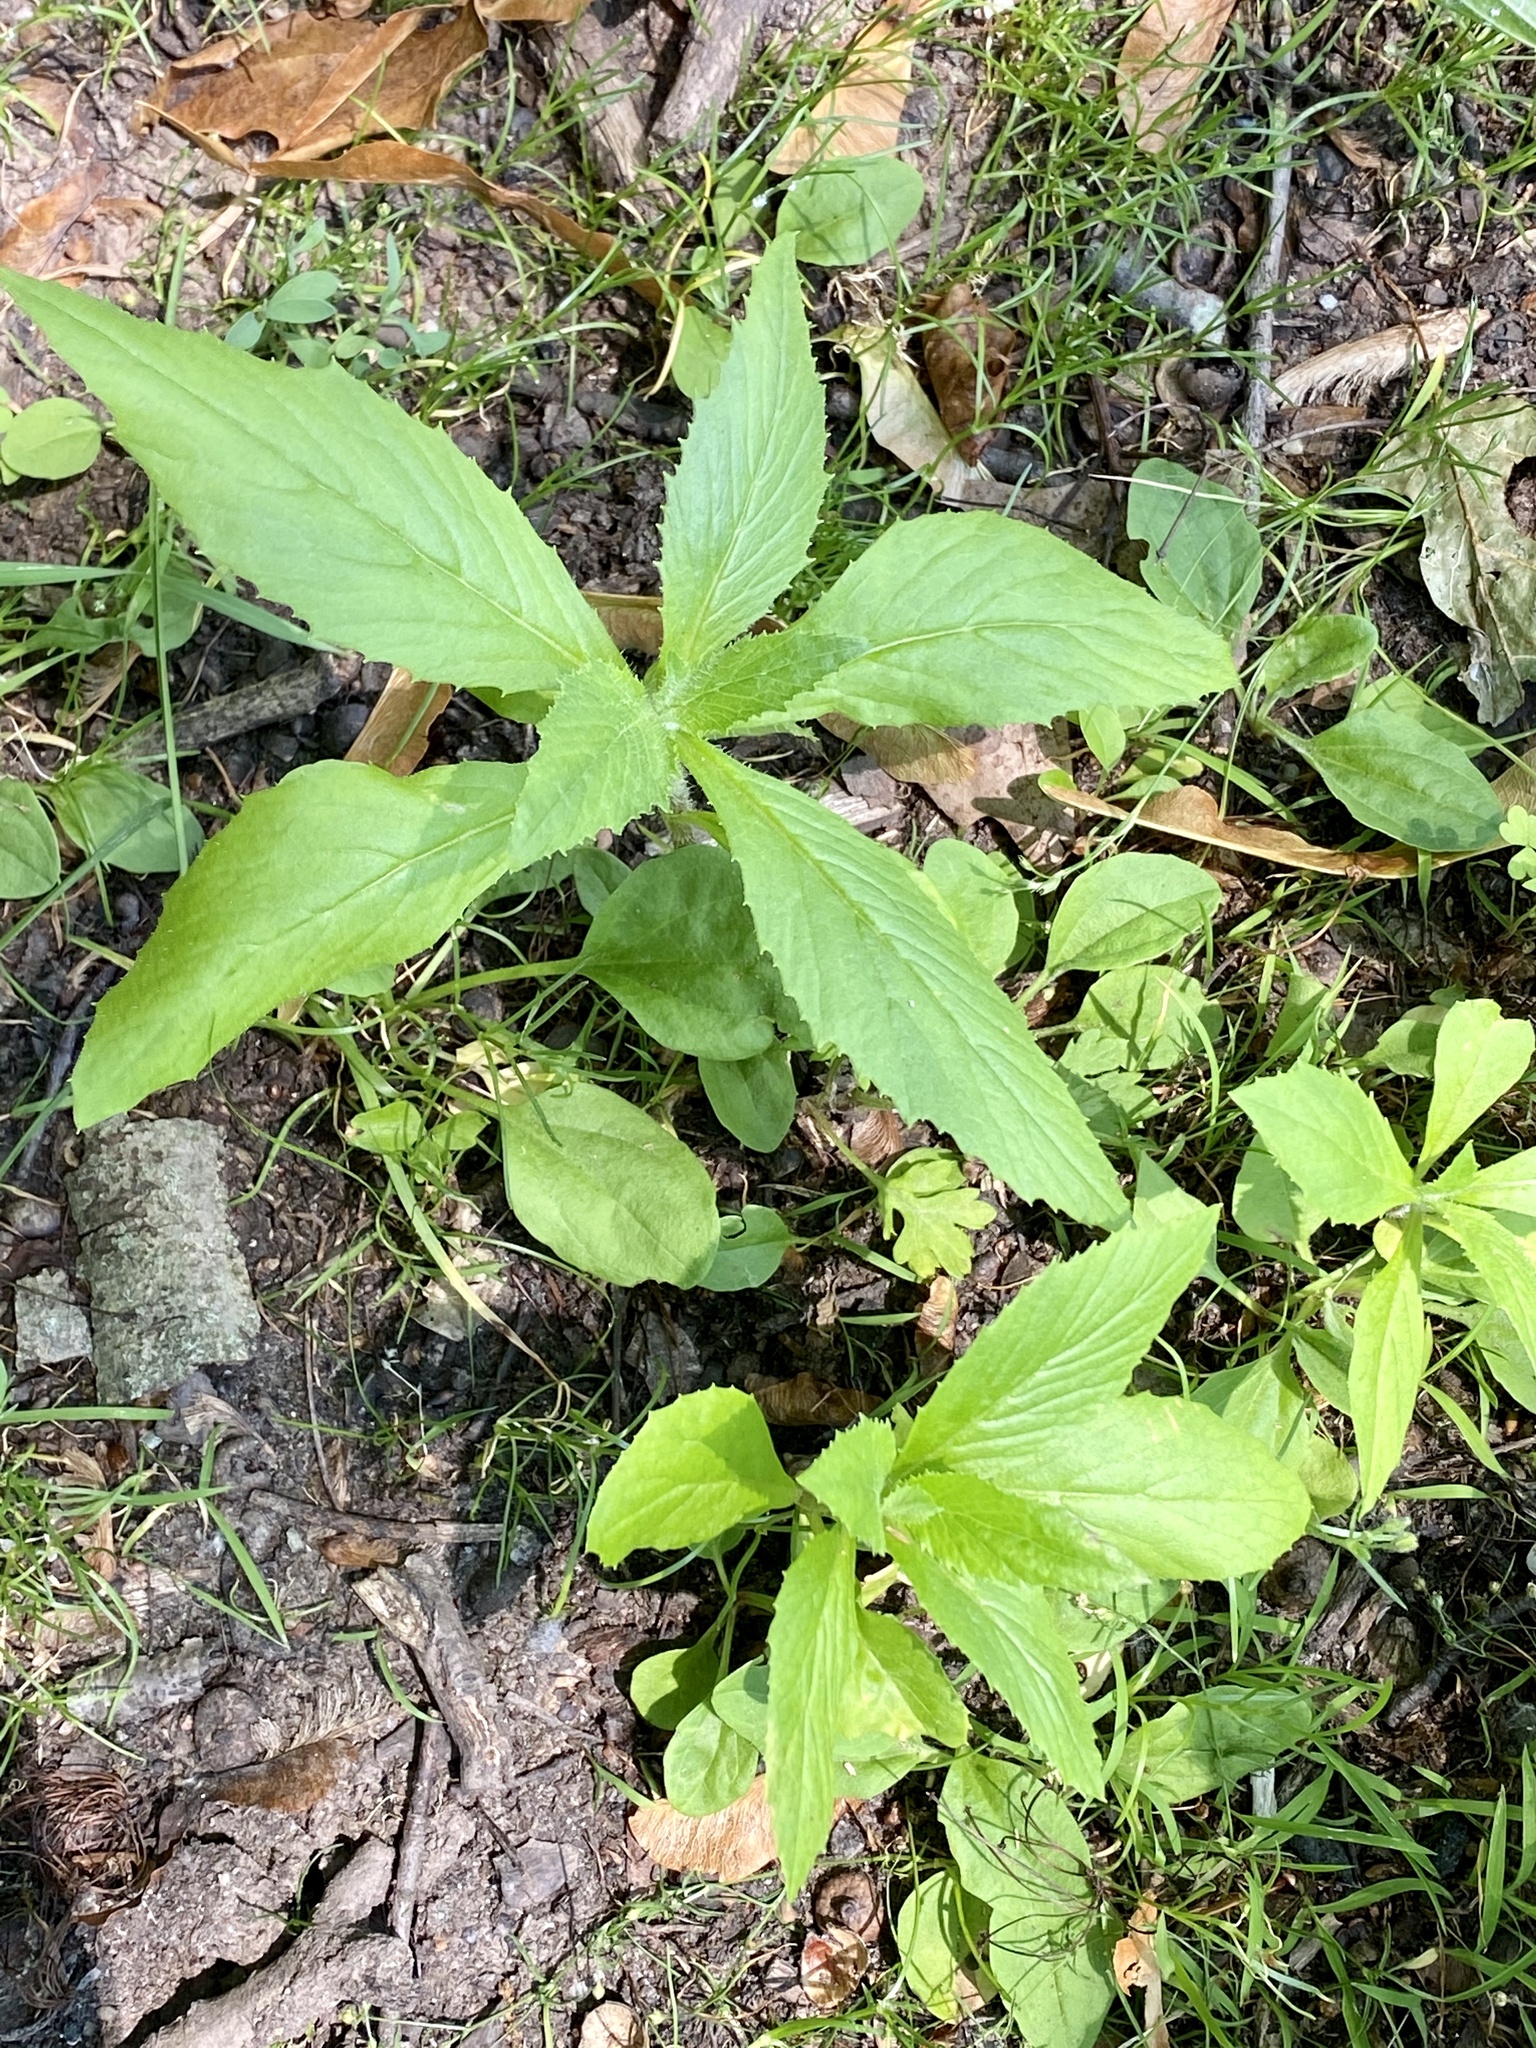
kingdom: Plantae
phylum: Tracheophyta
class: Magnoliopsida
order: Asterales
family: Asteraceae
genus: Erechtites
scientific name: Erechtites hieraciifolius
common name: American burnweed
